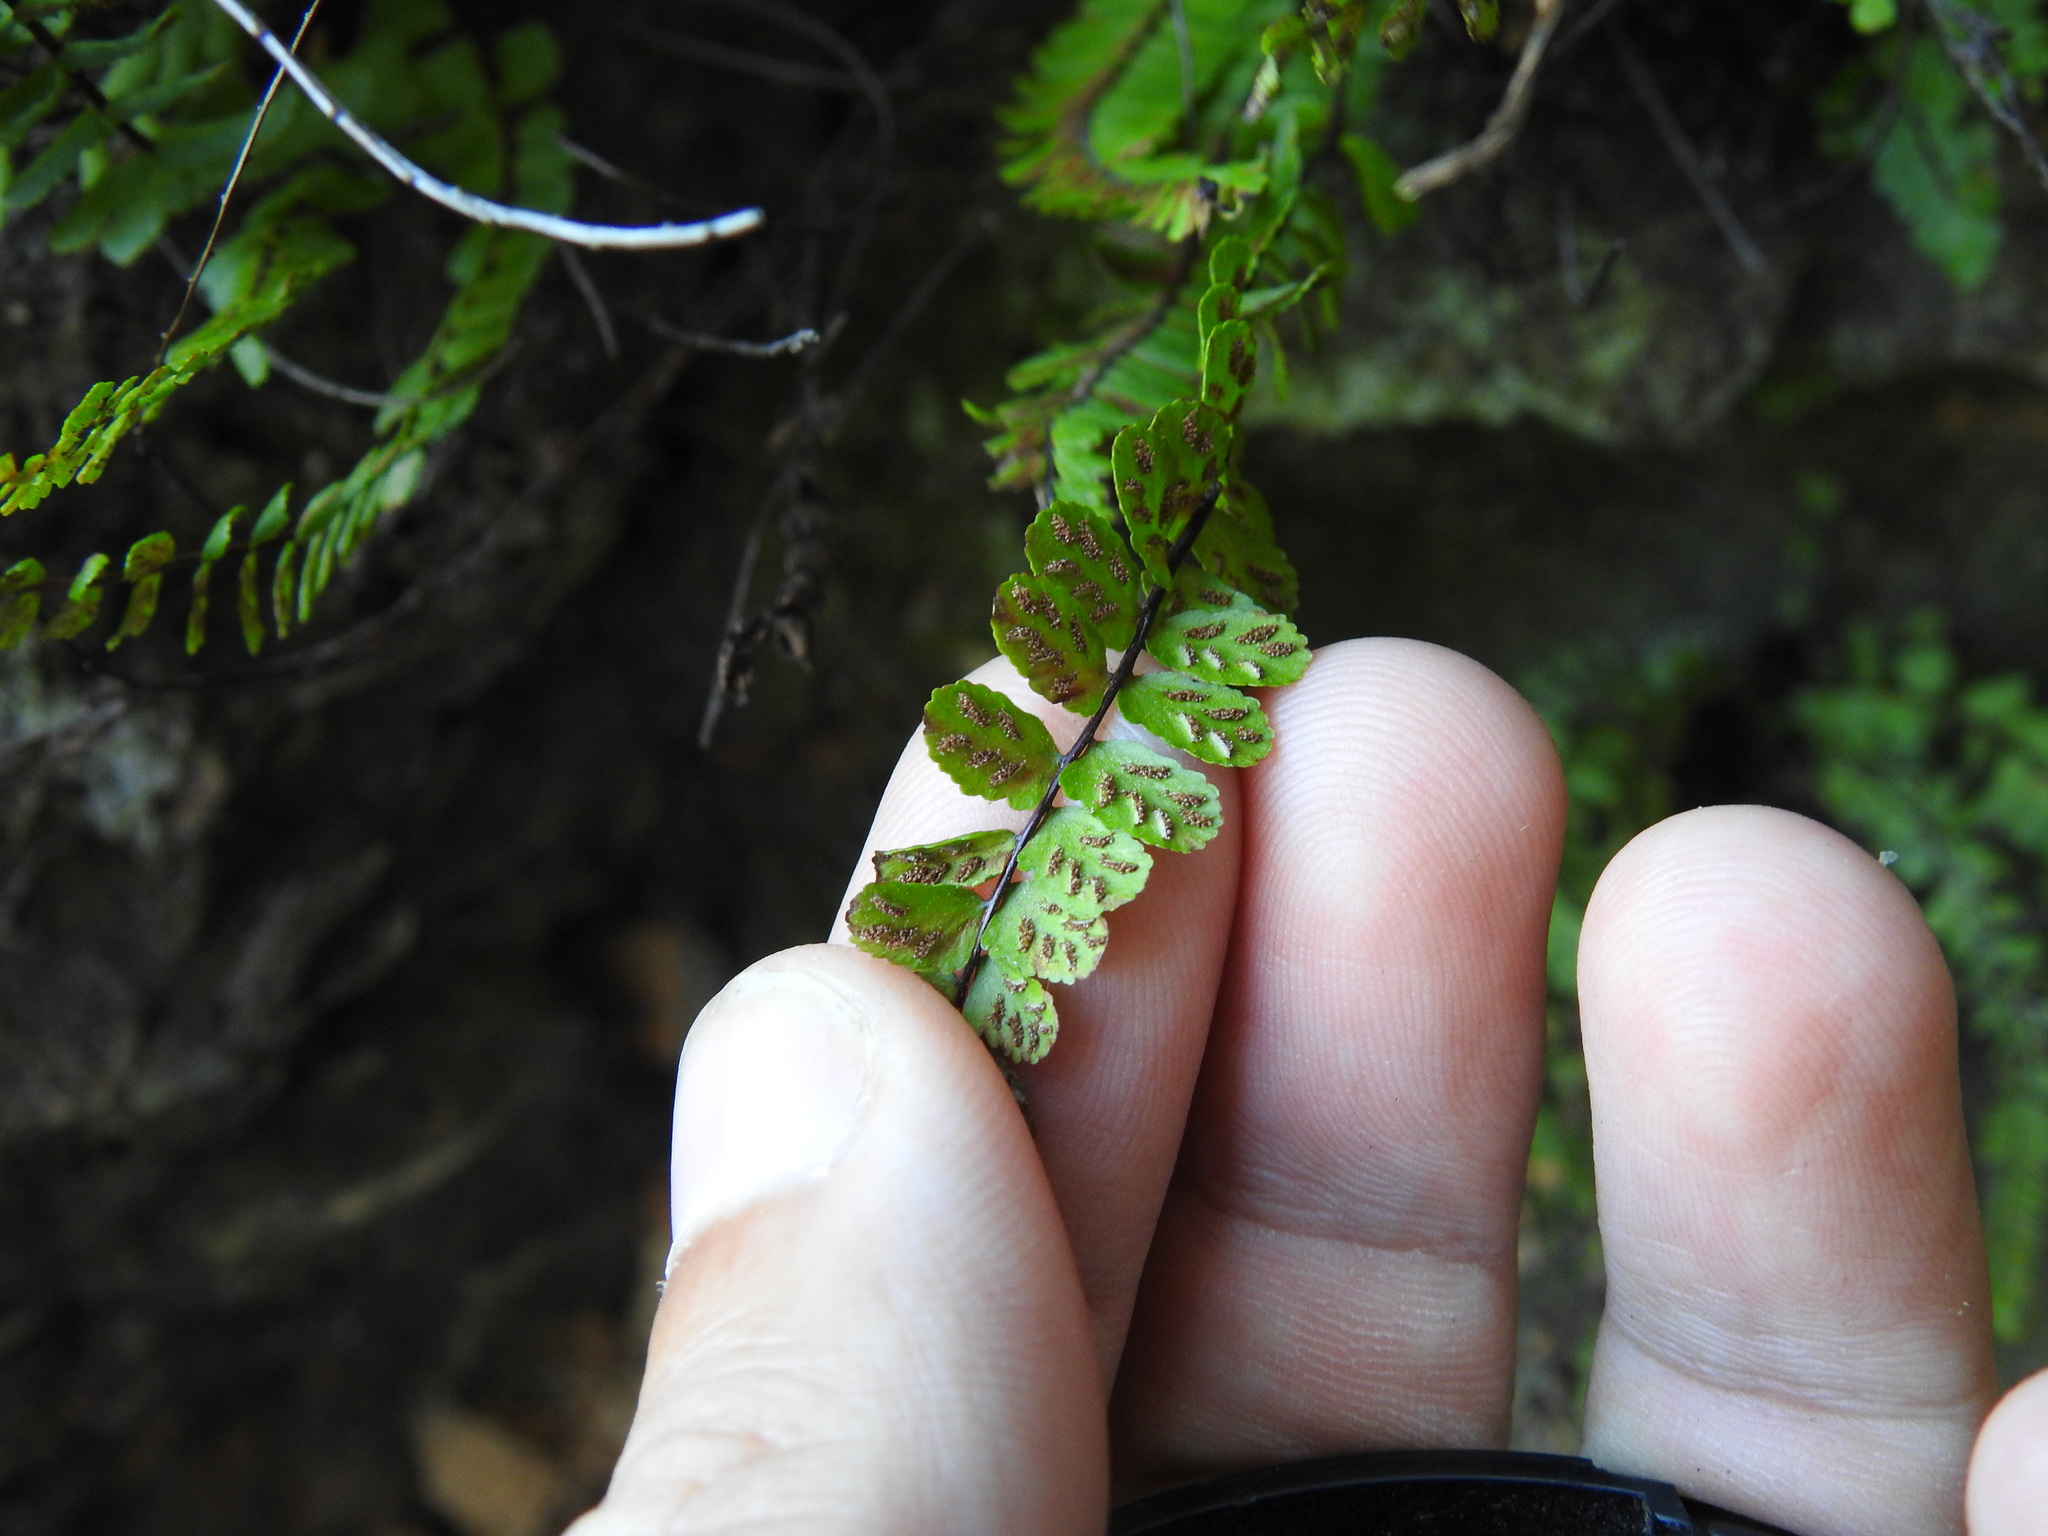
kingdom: Plantae
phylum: Tracheophyta
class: Polypodiopsida
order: Polypodiales
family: Aspleniaceae
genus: Asplenium
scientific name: Asplenium trichomanes
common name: Maidenhair spleenwort
